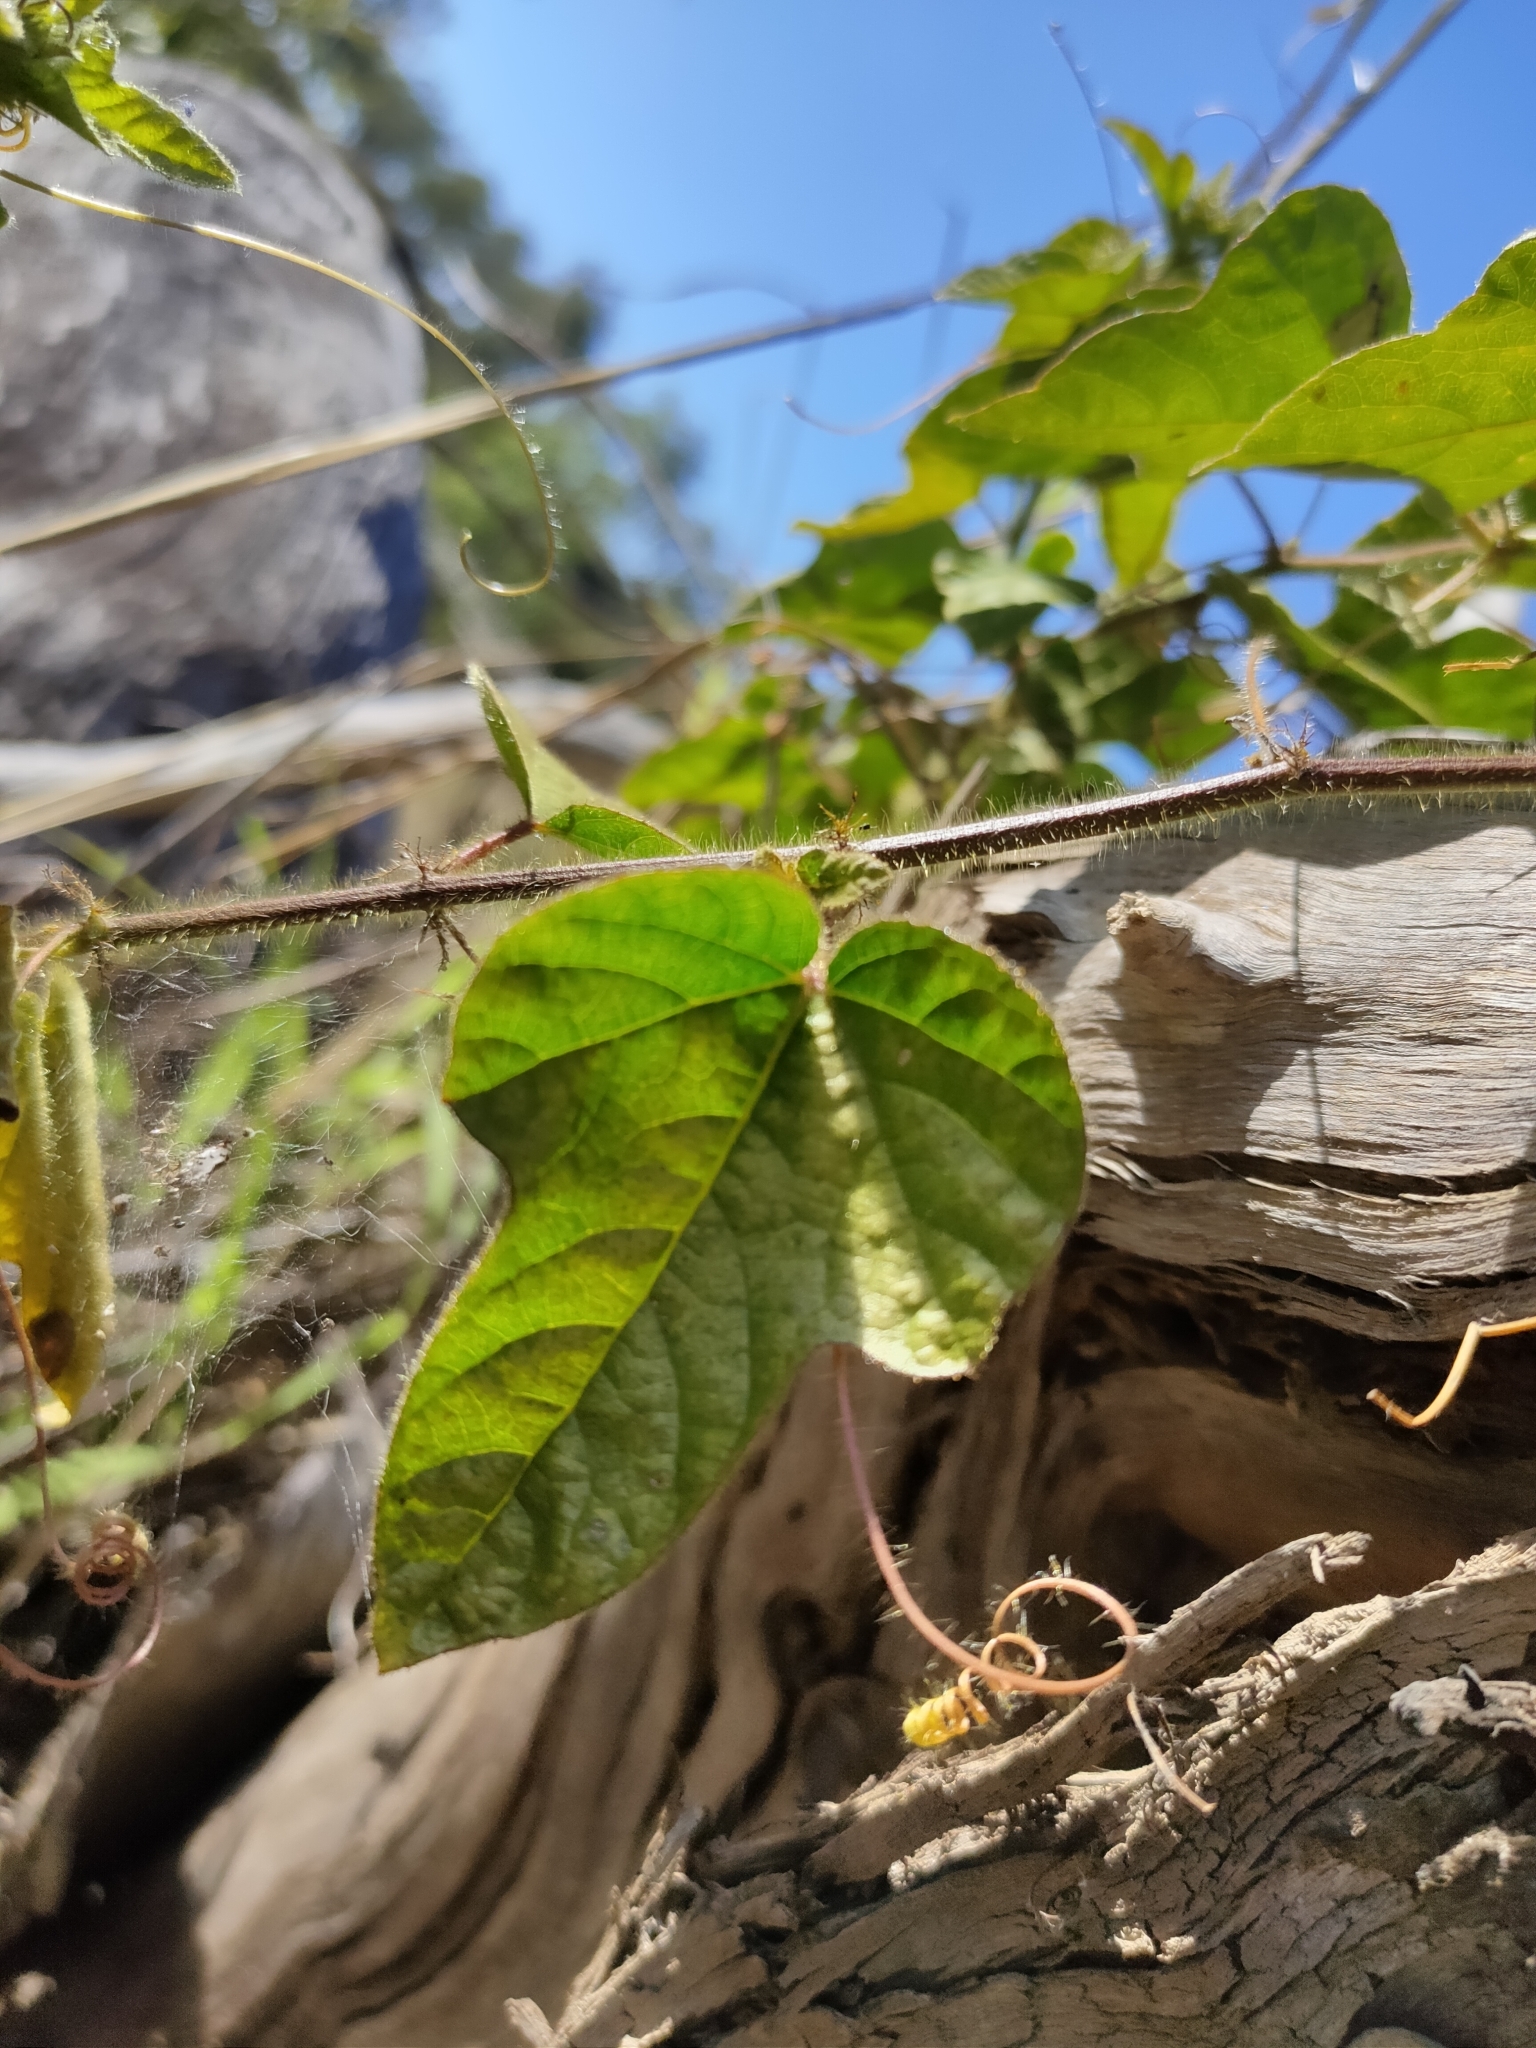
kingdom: Plantae
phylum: Tracheophyta
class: Magnoliopsida
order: Malpighiales
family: Passifloraceae
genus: Passiflora
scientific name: Passiflora foetida
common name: Fetid passionflower
